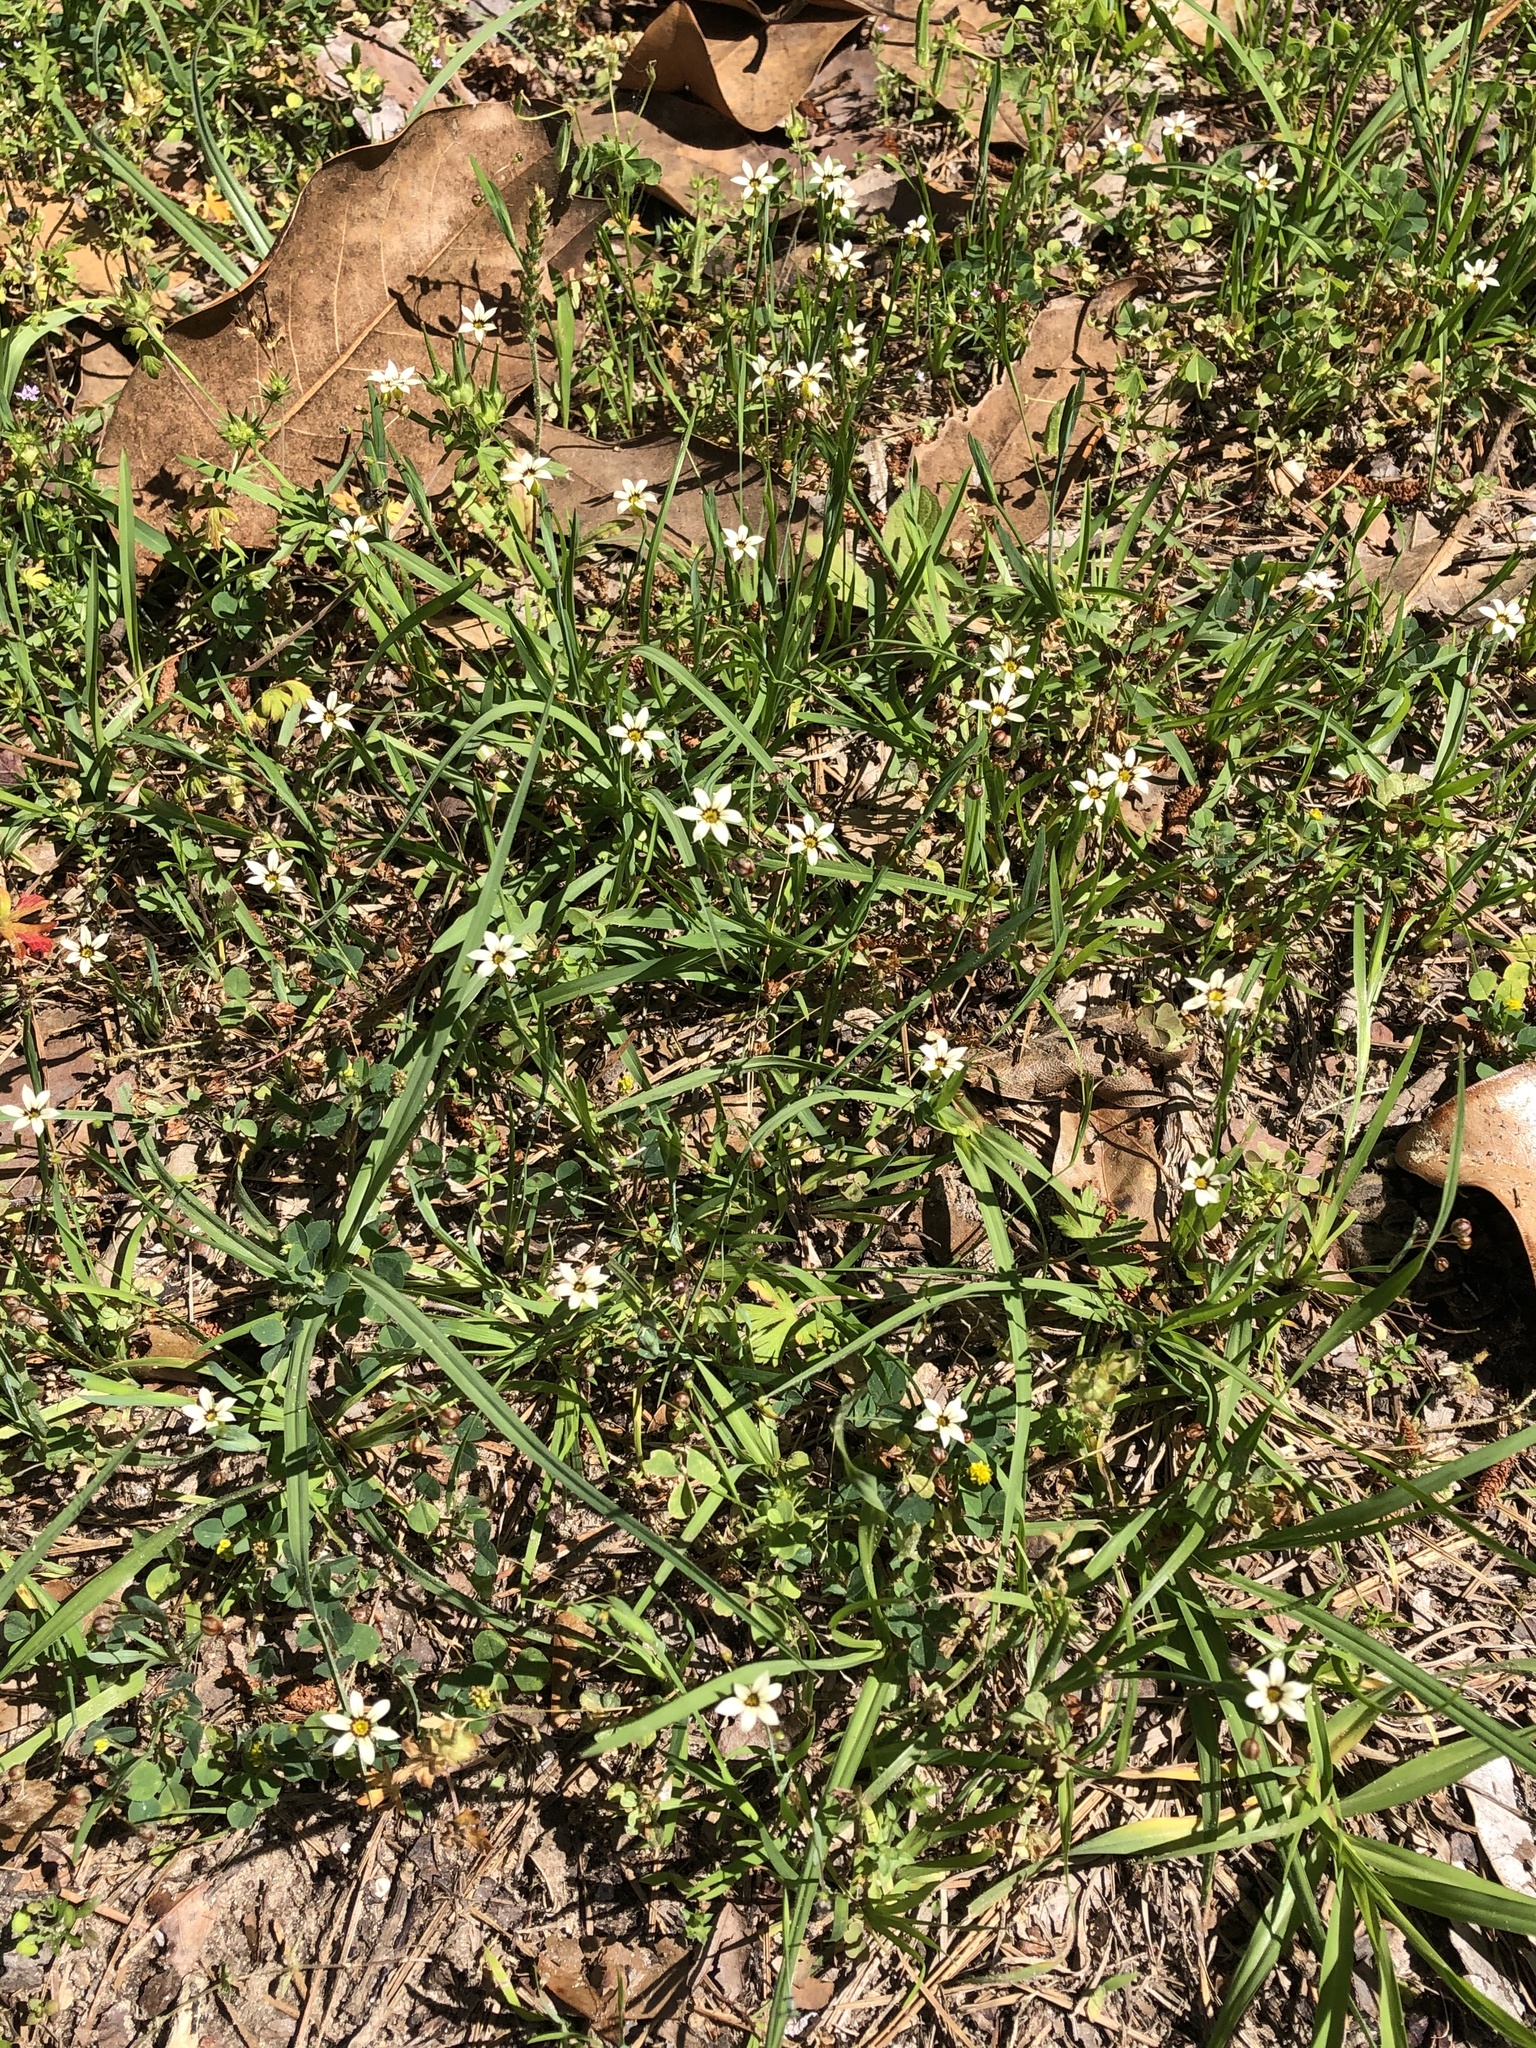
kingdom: Plantae
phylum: Tracheophyta
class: Liliopsida
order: Asparagales
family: Iridaceae
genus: Sisyrinchium
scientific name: Sisyrinchium micranthum
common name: Bermuda pigroot
